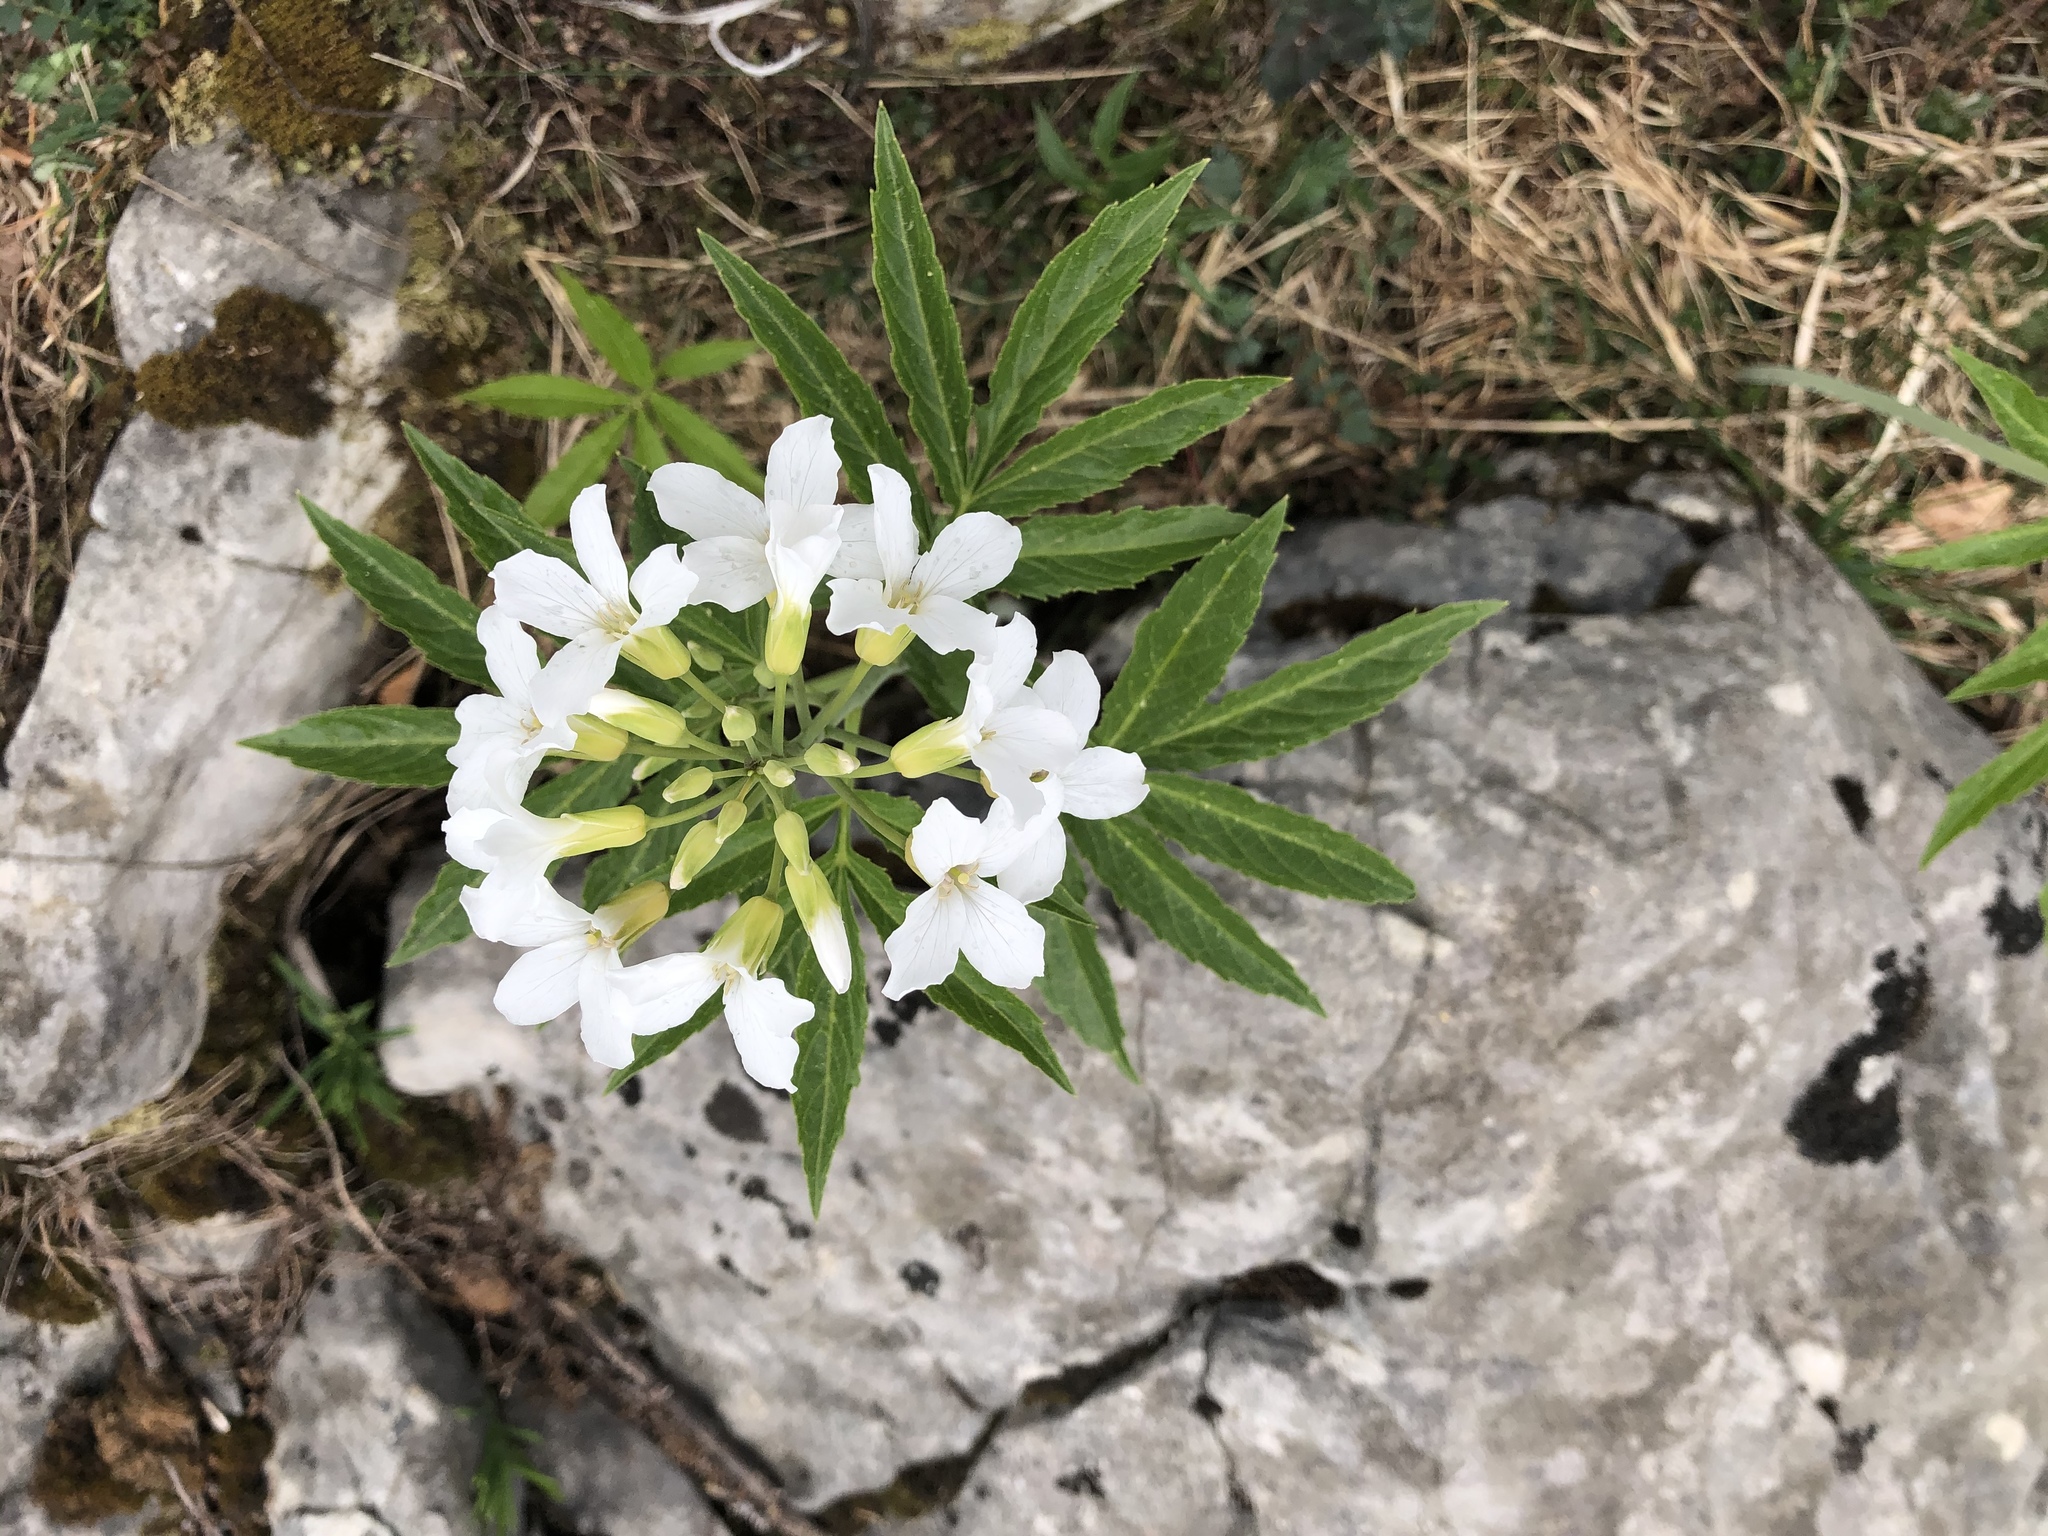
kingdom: Plantae
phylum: Tracheophyta
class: Magnoliopsida
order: Brassicales
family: Brassicaceae
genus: Cardamine
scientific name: Cardamine heptaphylla
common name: Pinnate coralroot
